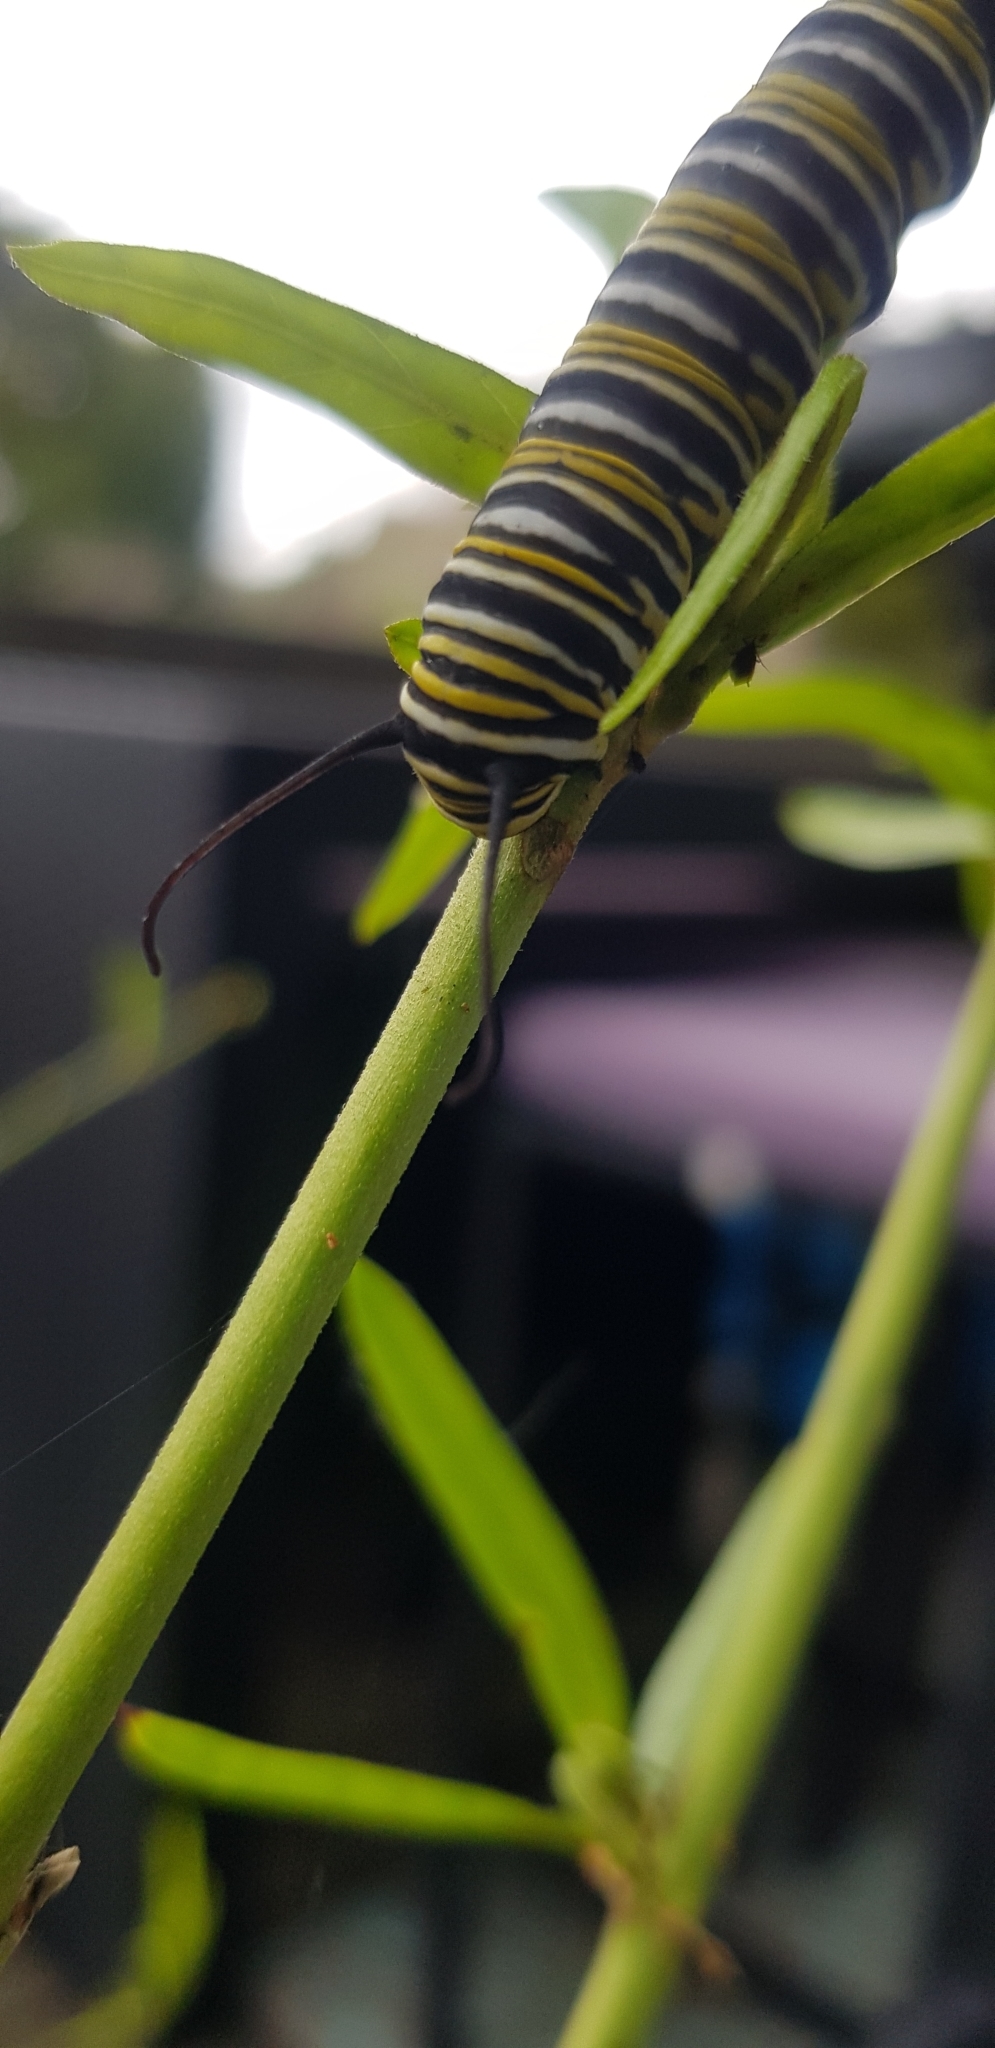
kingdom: Animalia
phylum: Arthropoda
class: Insecta
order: Lepidoptera
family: Nymphalidae
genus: Danaus
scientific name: Danaus plexippus
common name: Monarch
